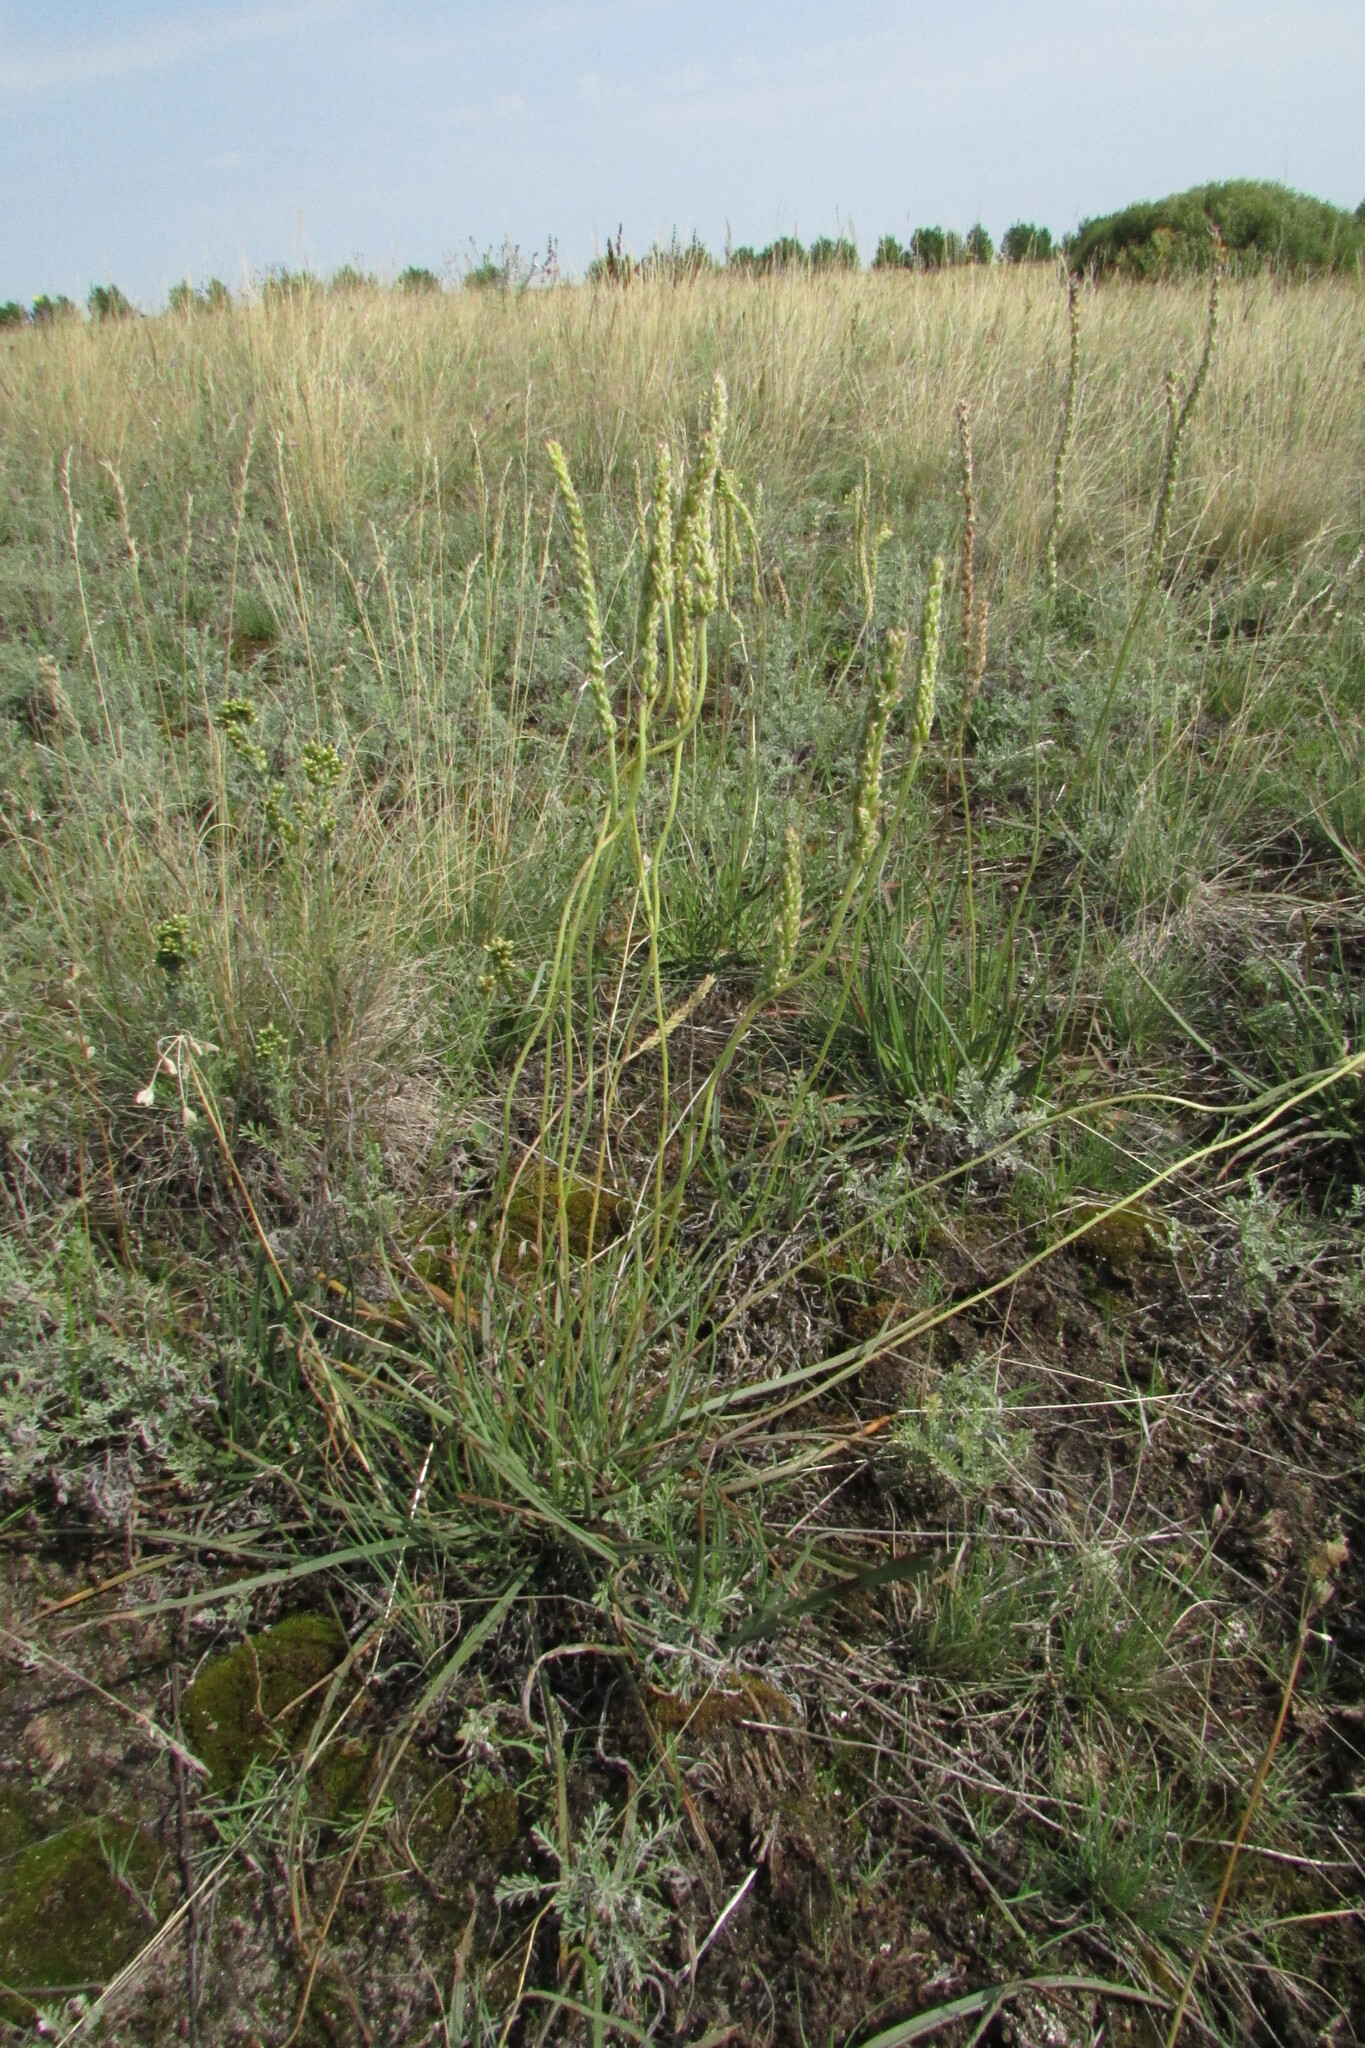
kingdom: Plantae
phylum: Tracheophyta
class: Magnoliopsida
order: Lamiales
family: Plantaginaceae
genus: Plantago
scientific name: Plantago salsa
